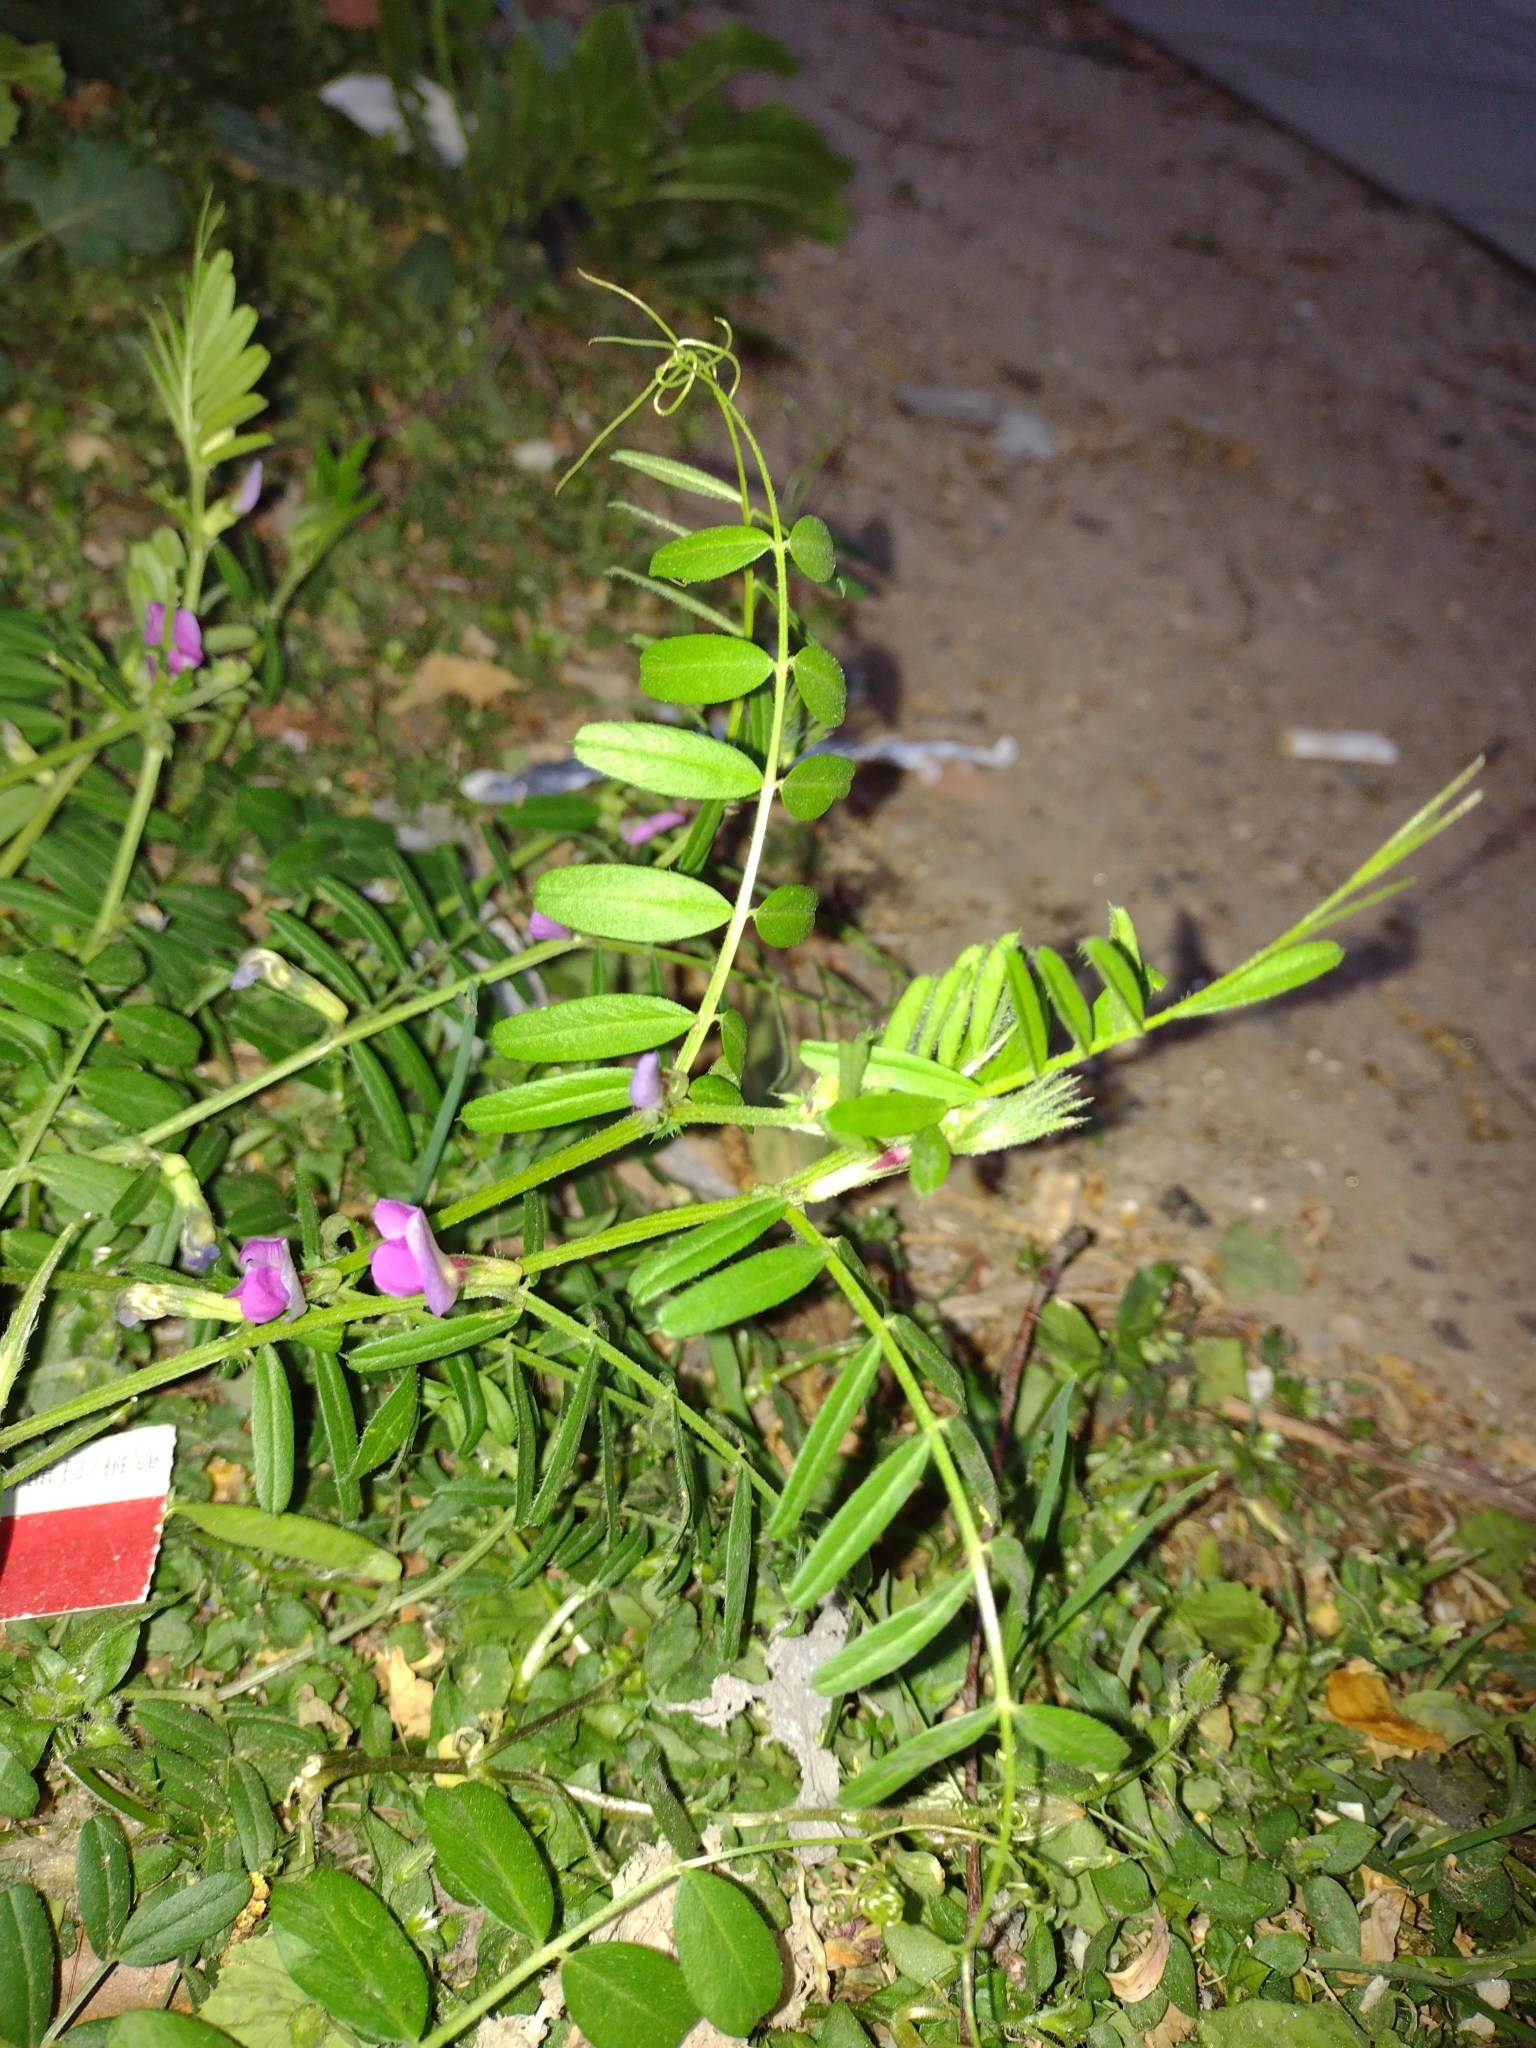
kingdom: Plantae
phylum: Tracheophyta
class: Magnoliopsida
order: Fabales
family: Fabaceae
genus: Vicia
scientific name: Vicia sativa
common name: Garden vetch
